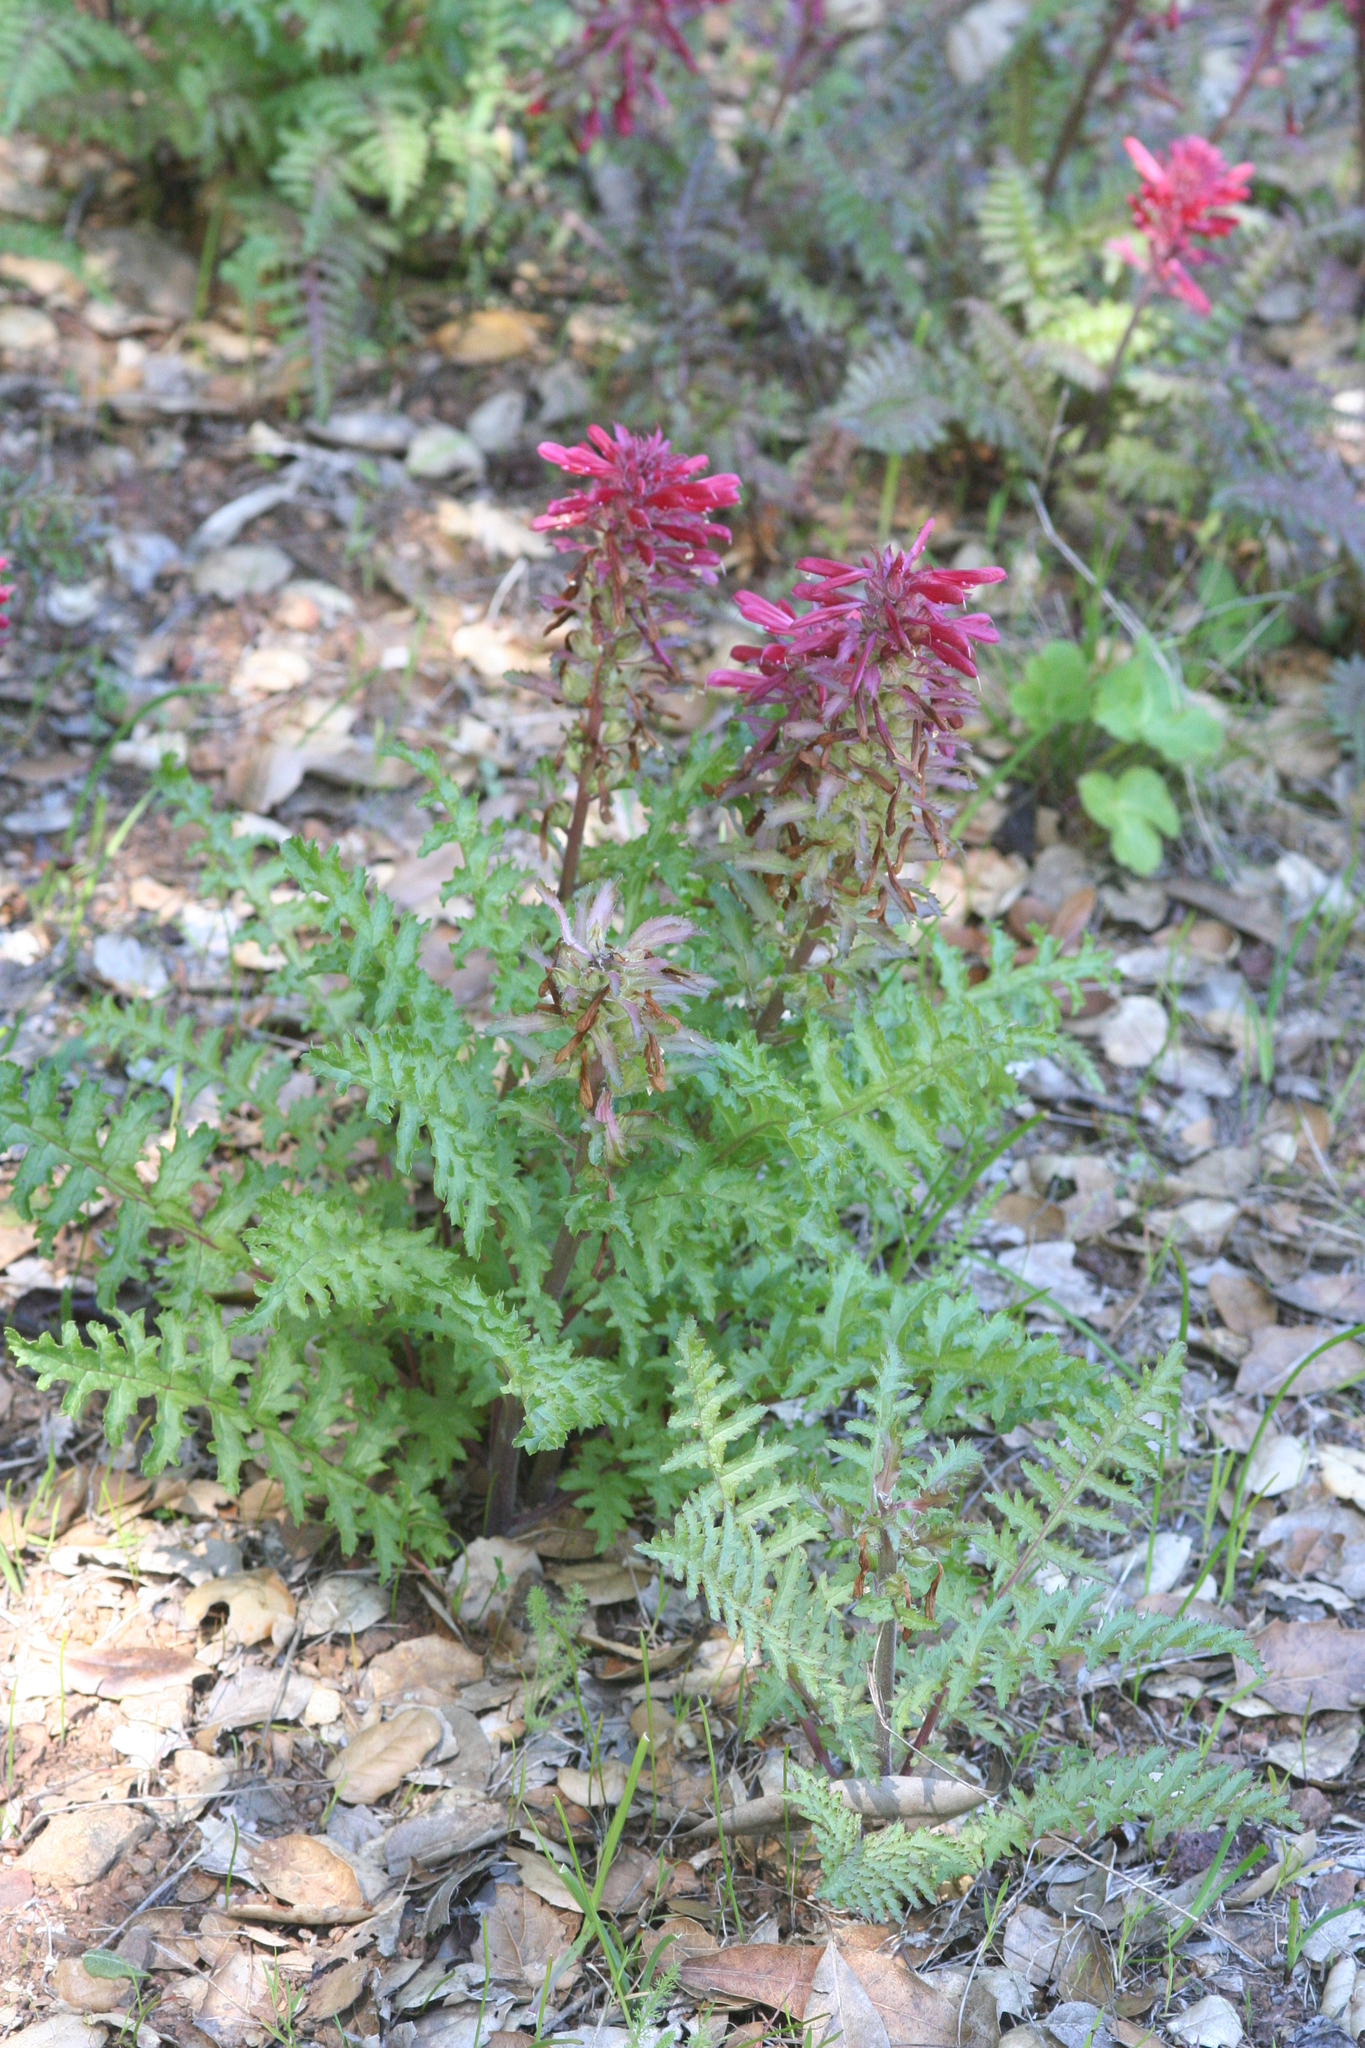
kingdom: Plantae
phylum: Tracheophyta
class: Magnoliopsida
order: Lamiales
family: Orobanchaceae
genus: Pedicularis
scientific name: Pedicularis densiflora
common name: Indian warrior
